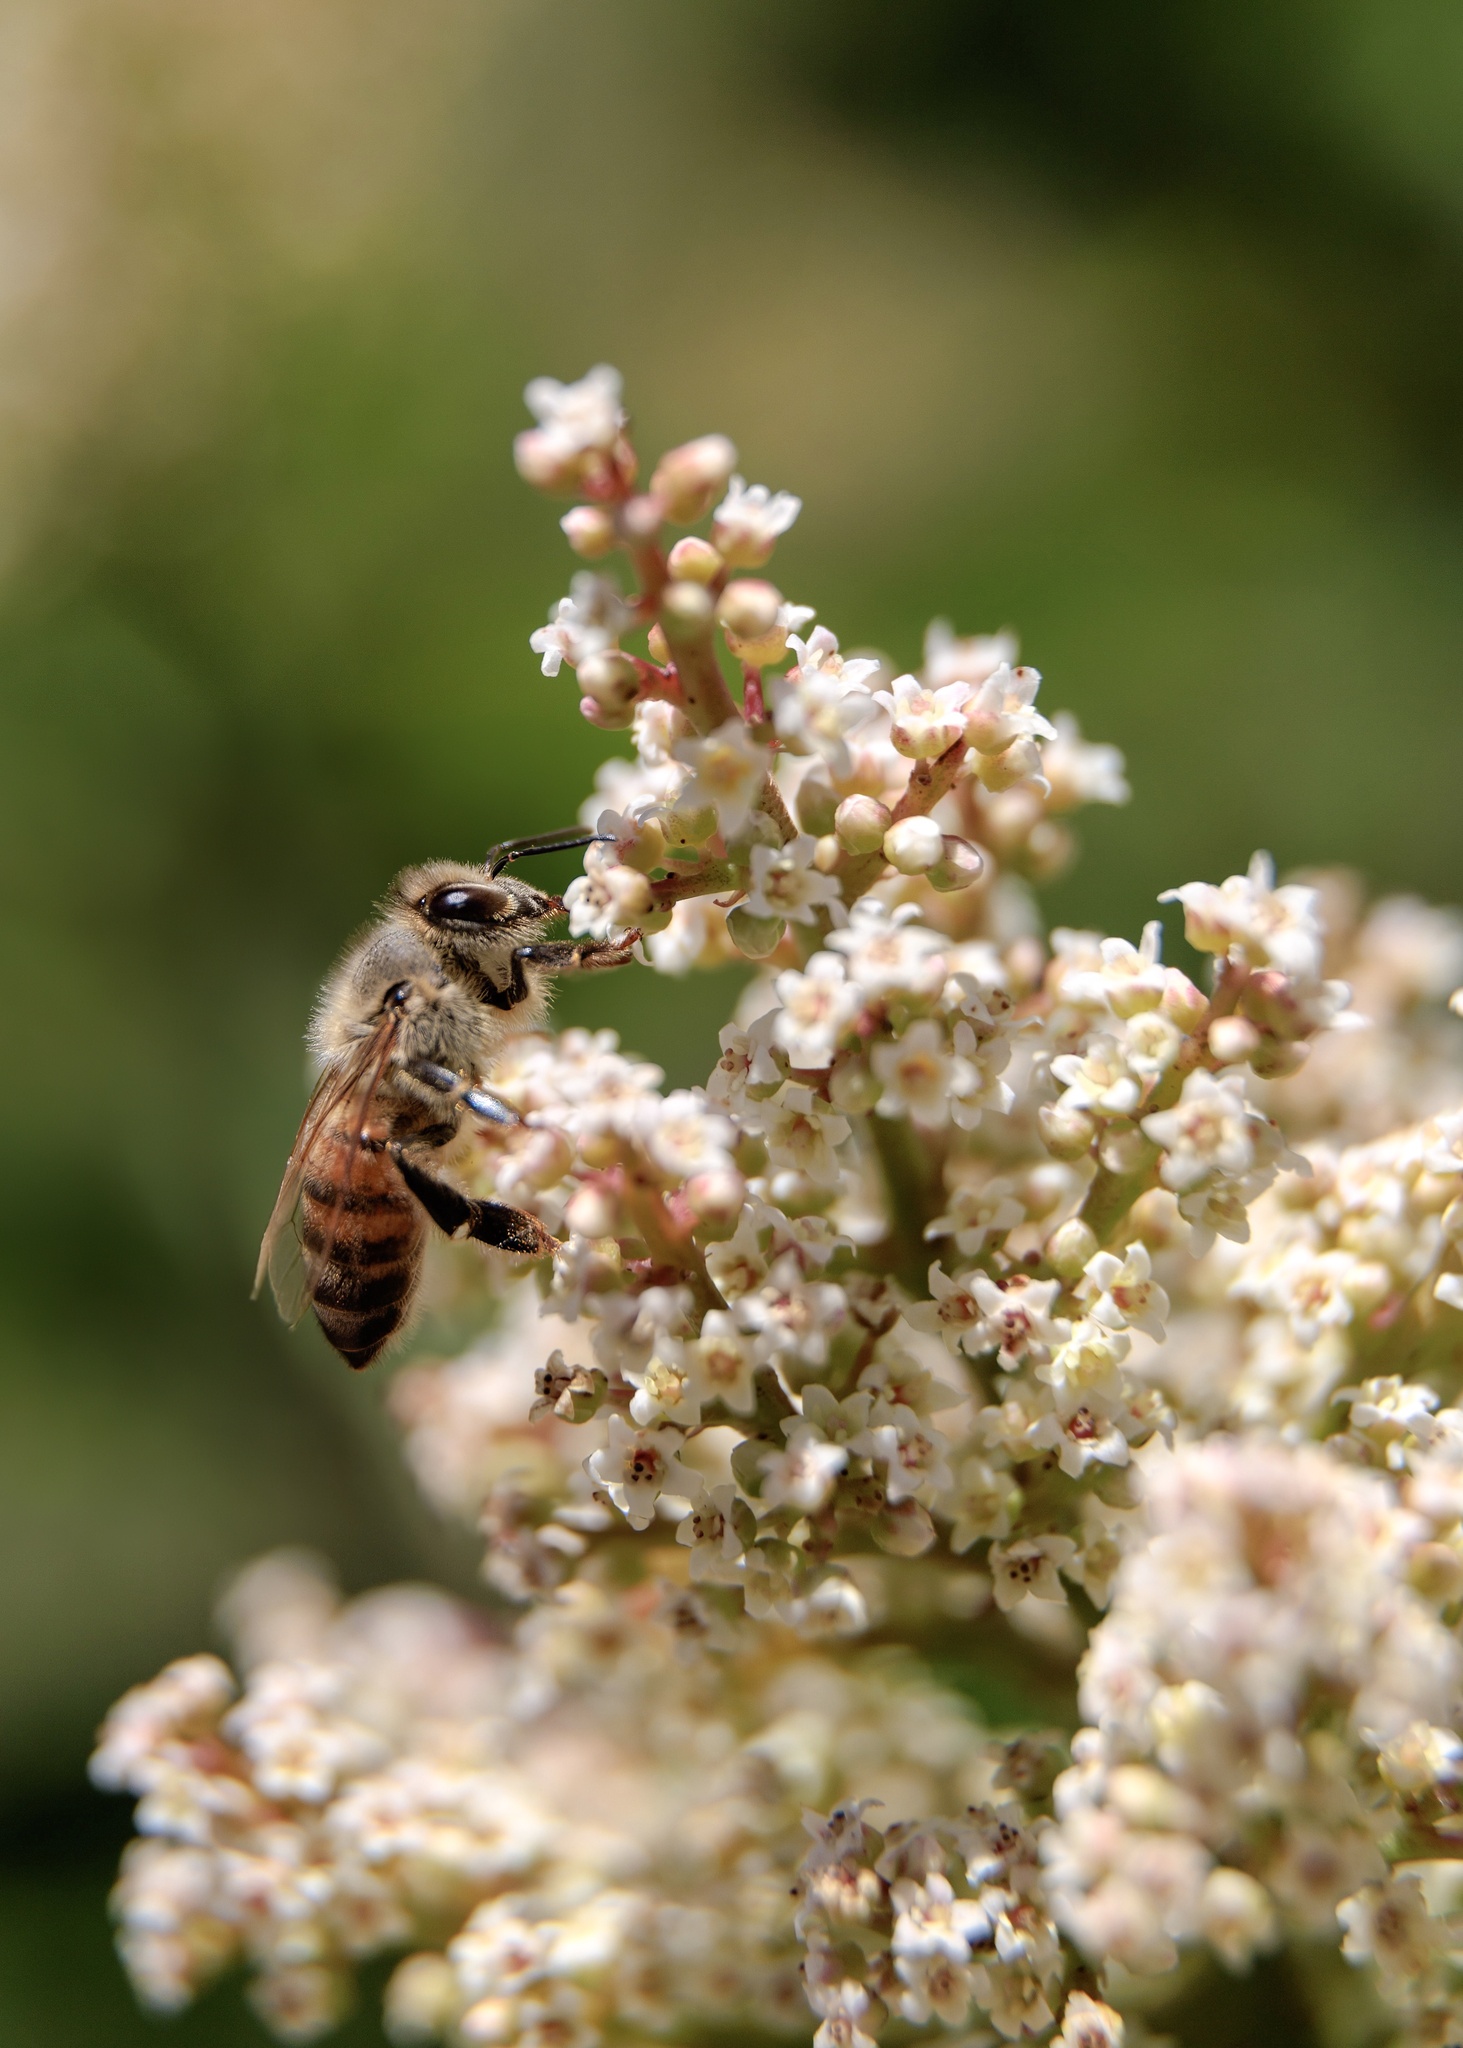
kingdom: Animalia
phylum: Arthropoda
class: Insecta
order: Hymenoptera
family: Apidae
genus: Apis
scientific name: Apis mellifera
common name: Honey bee
